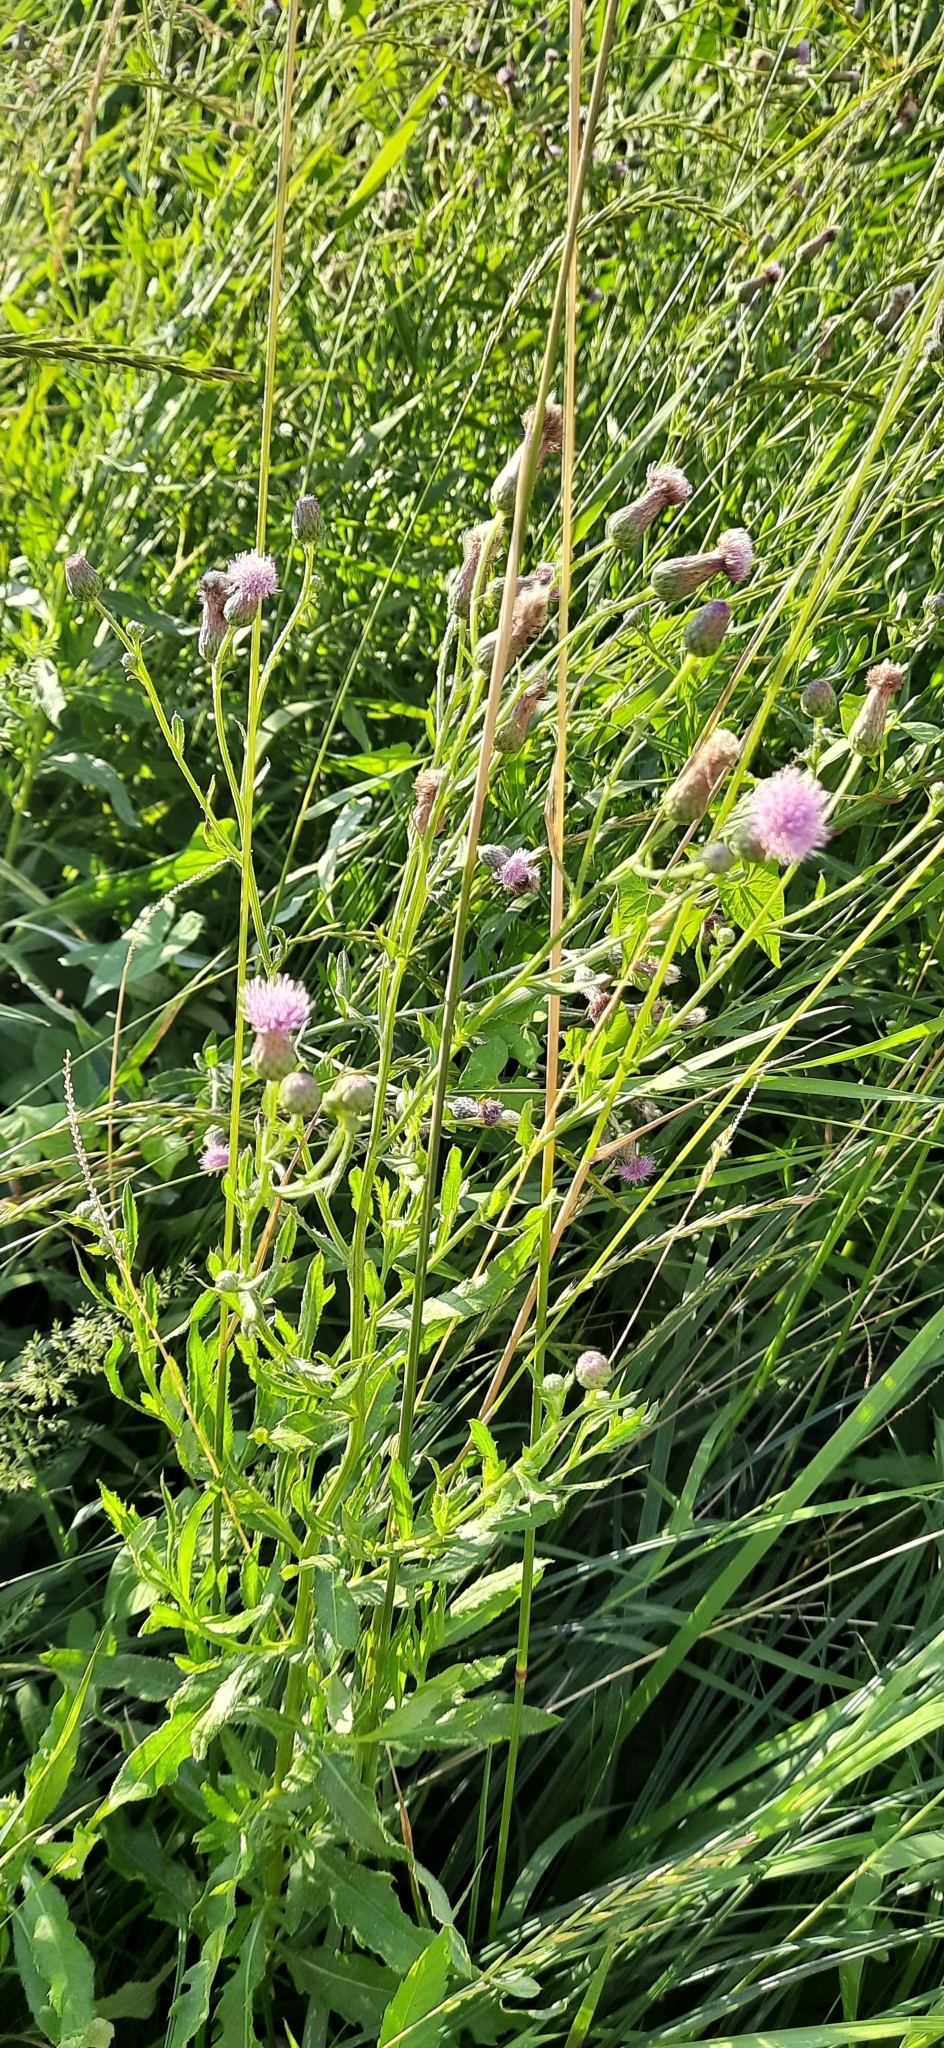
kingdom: Plantae
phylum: Tracheophyta
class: Magnoliopsida
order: Asterales
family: Asteraceae
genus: Cirsium
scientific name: Cirsium arvense
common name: Creeping thistle
